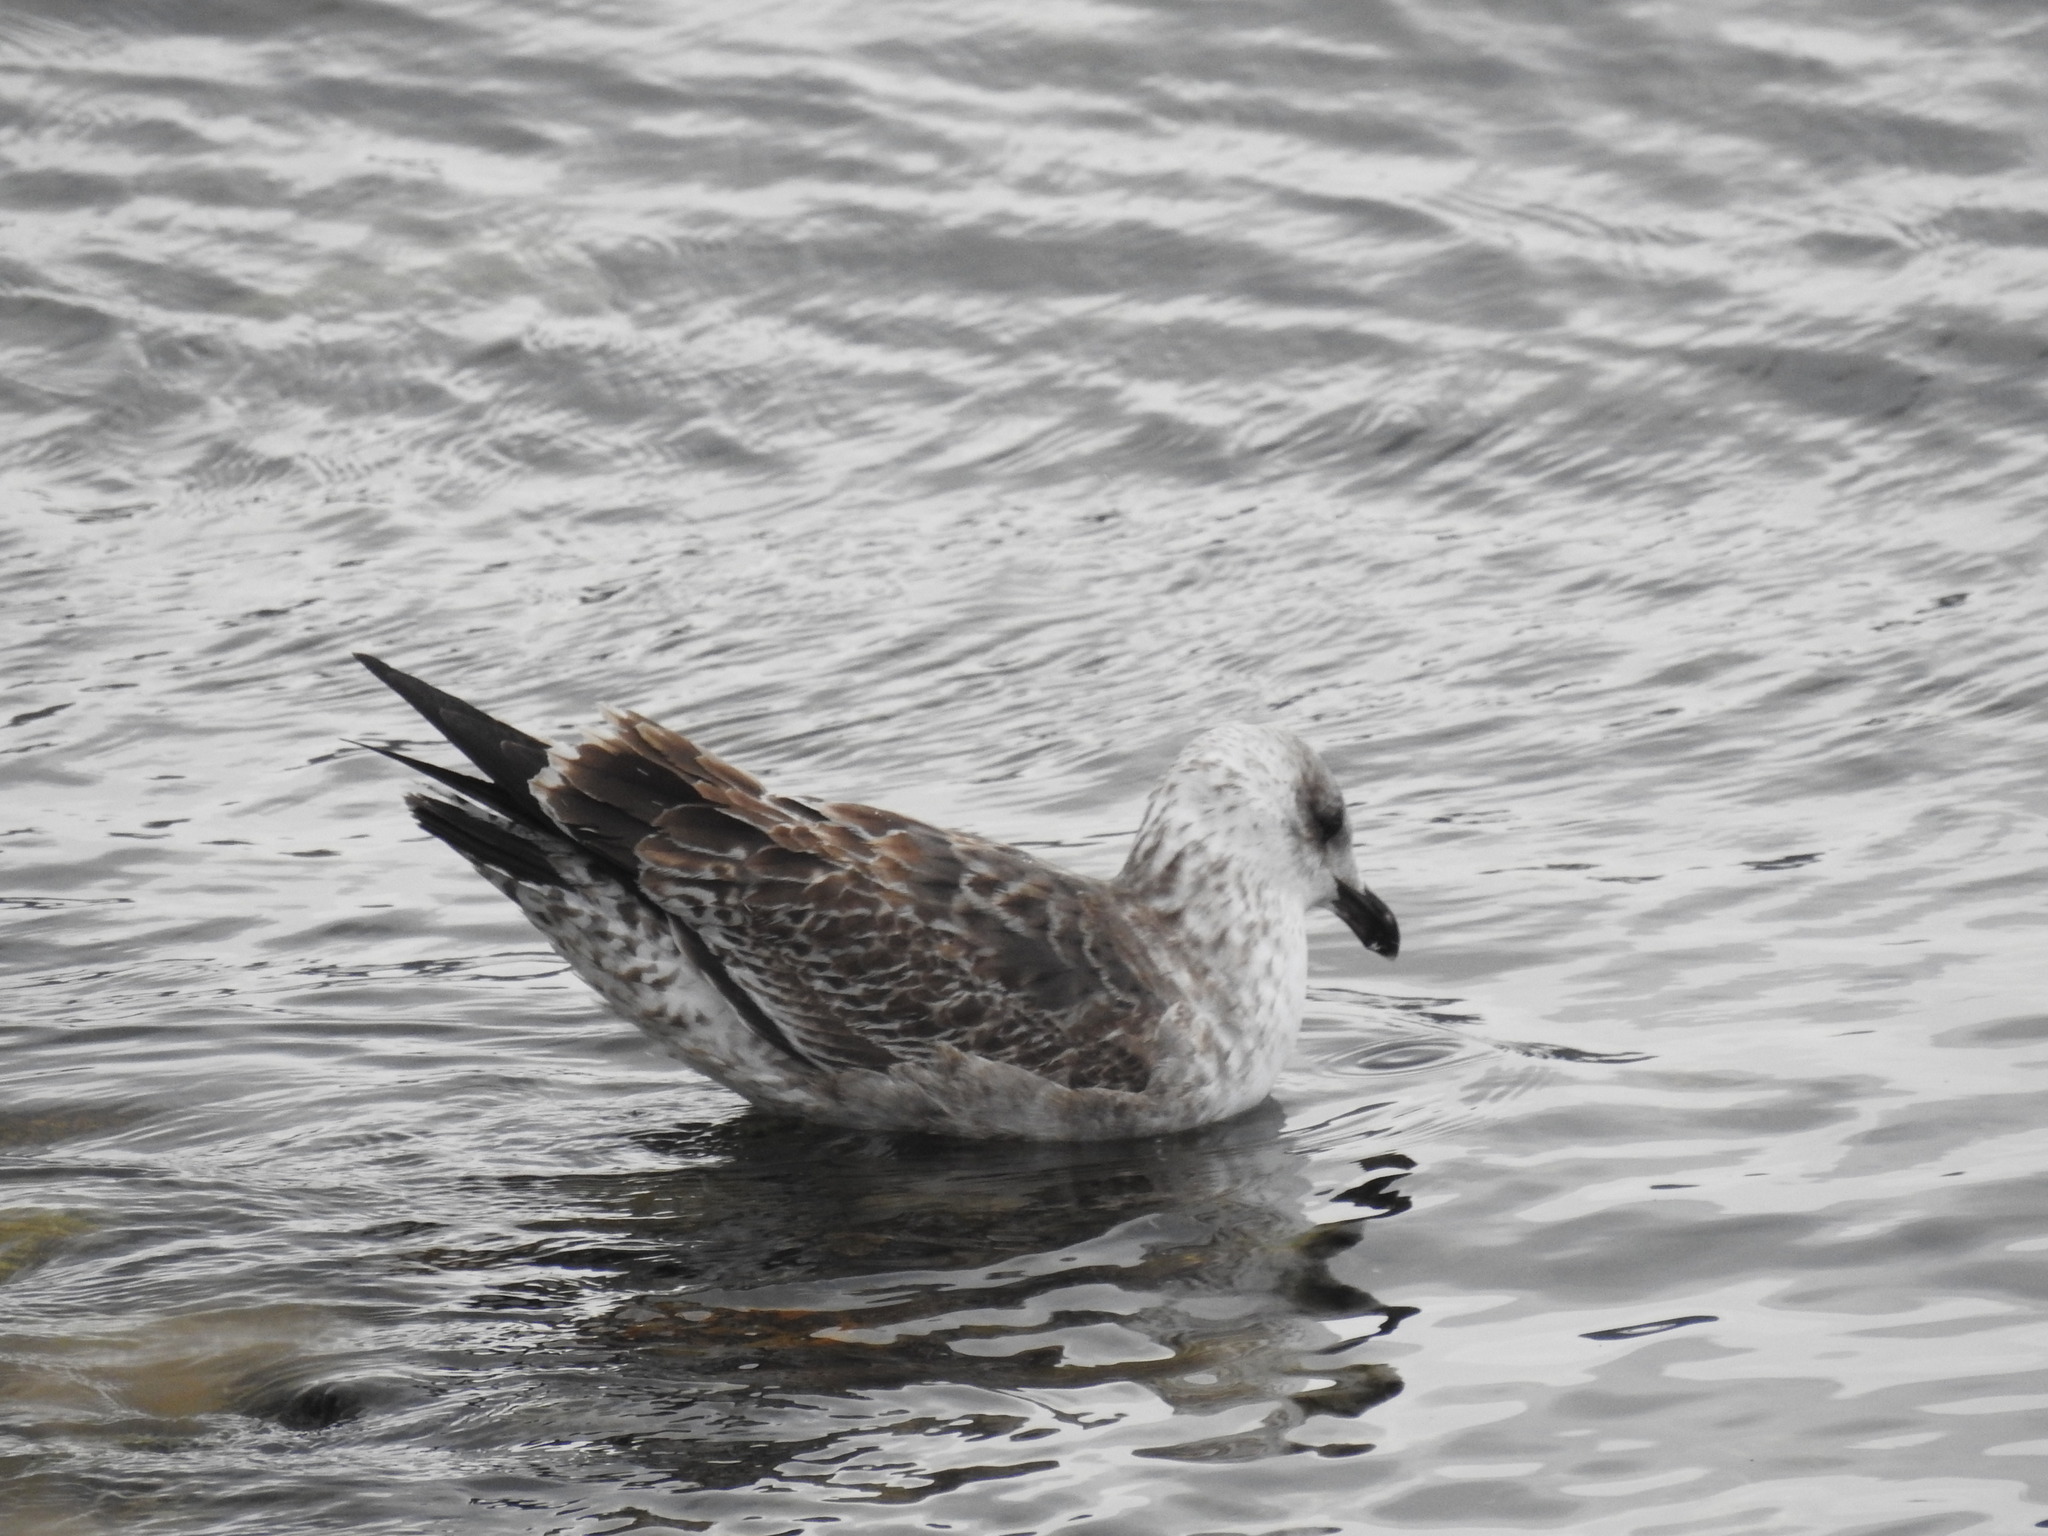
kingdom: Animalia
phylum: Chordata
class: Aves
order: Charadriiformes
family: Laridae
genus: Larus
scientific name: Larus dominicanus
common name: Kelp gull
